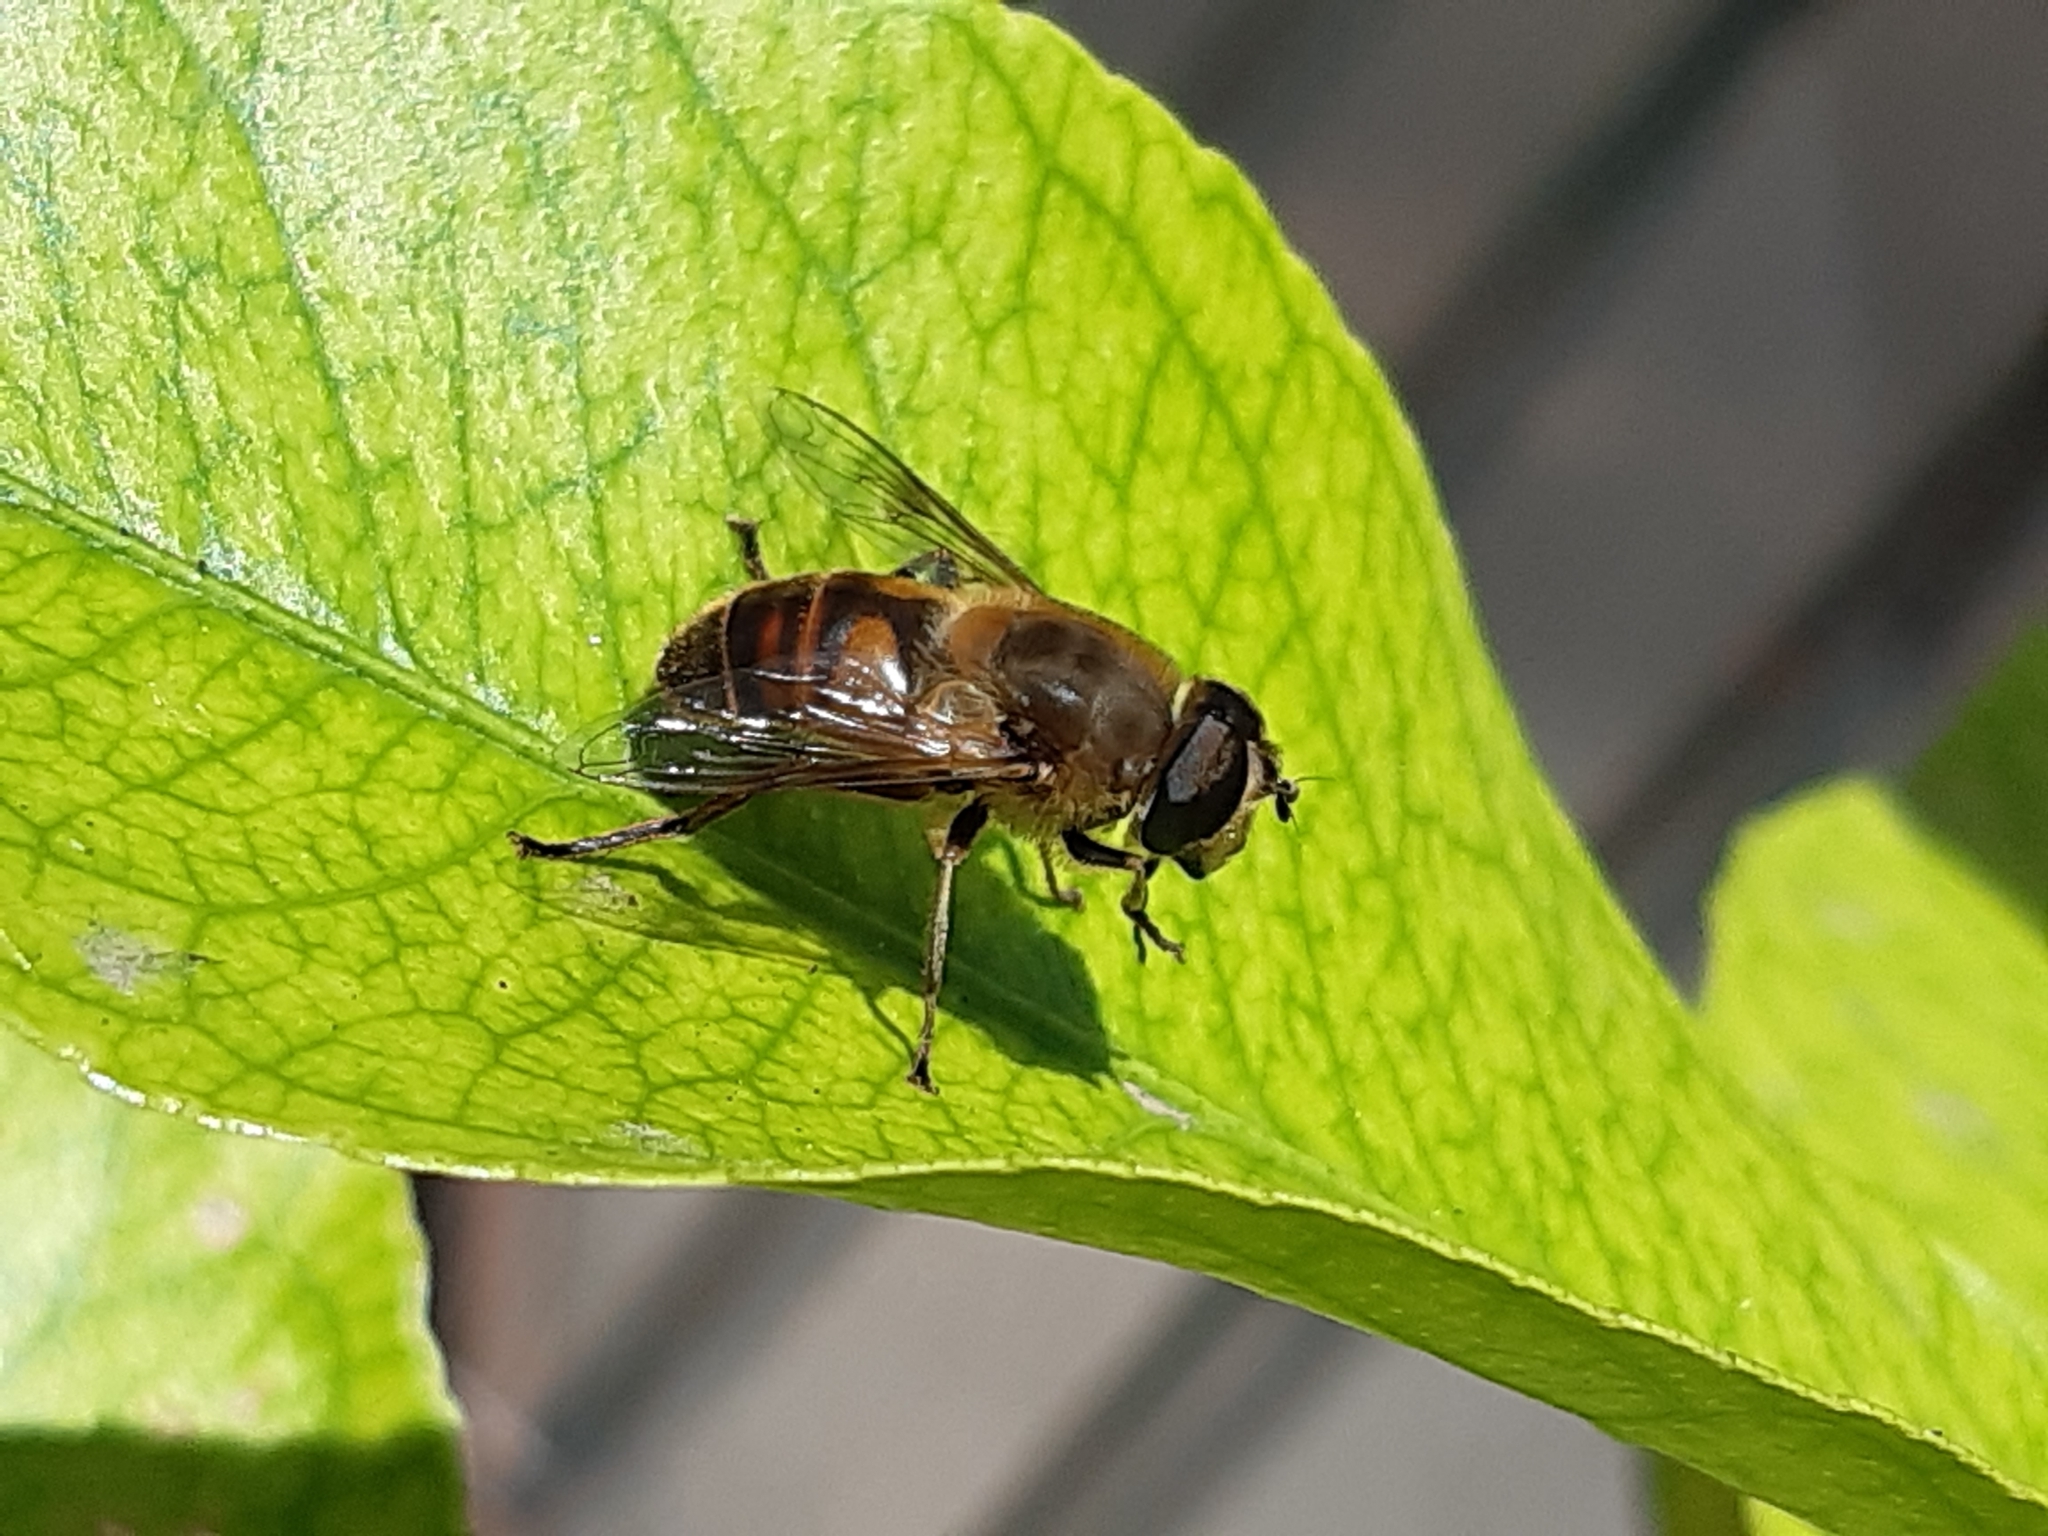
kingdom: Animalia
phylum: Arthropoda
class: Insecta
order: Diptera
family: Syrphidae
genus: Eristalis
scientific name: Eristalis tenax
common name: Drone fly
